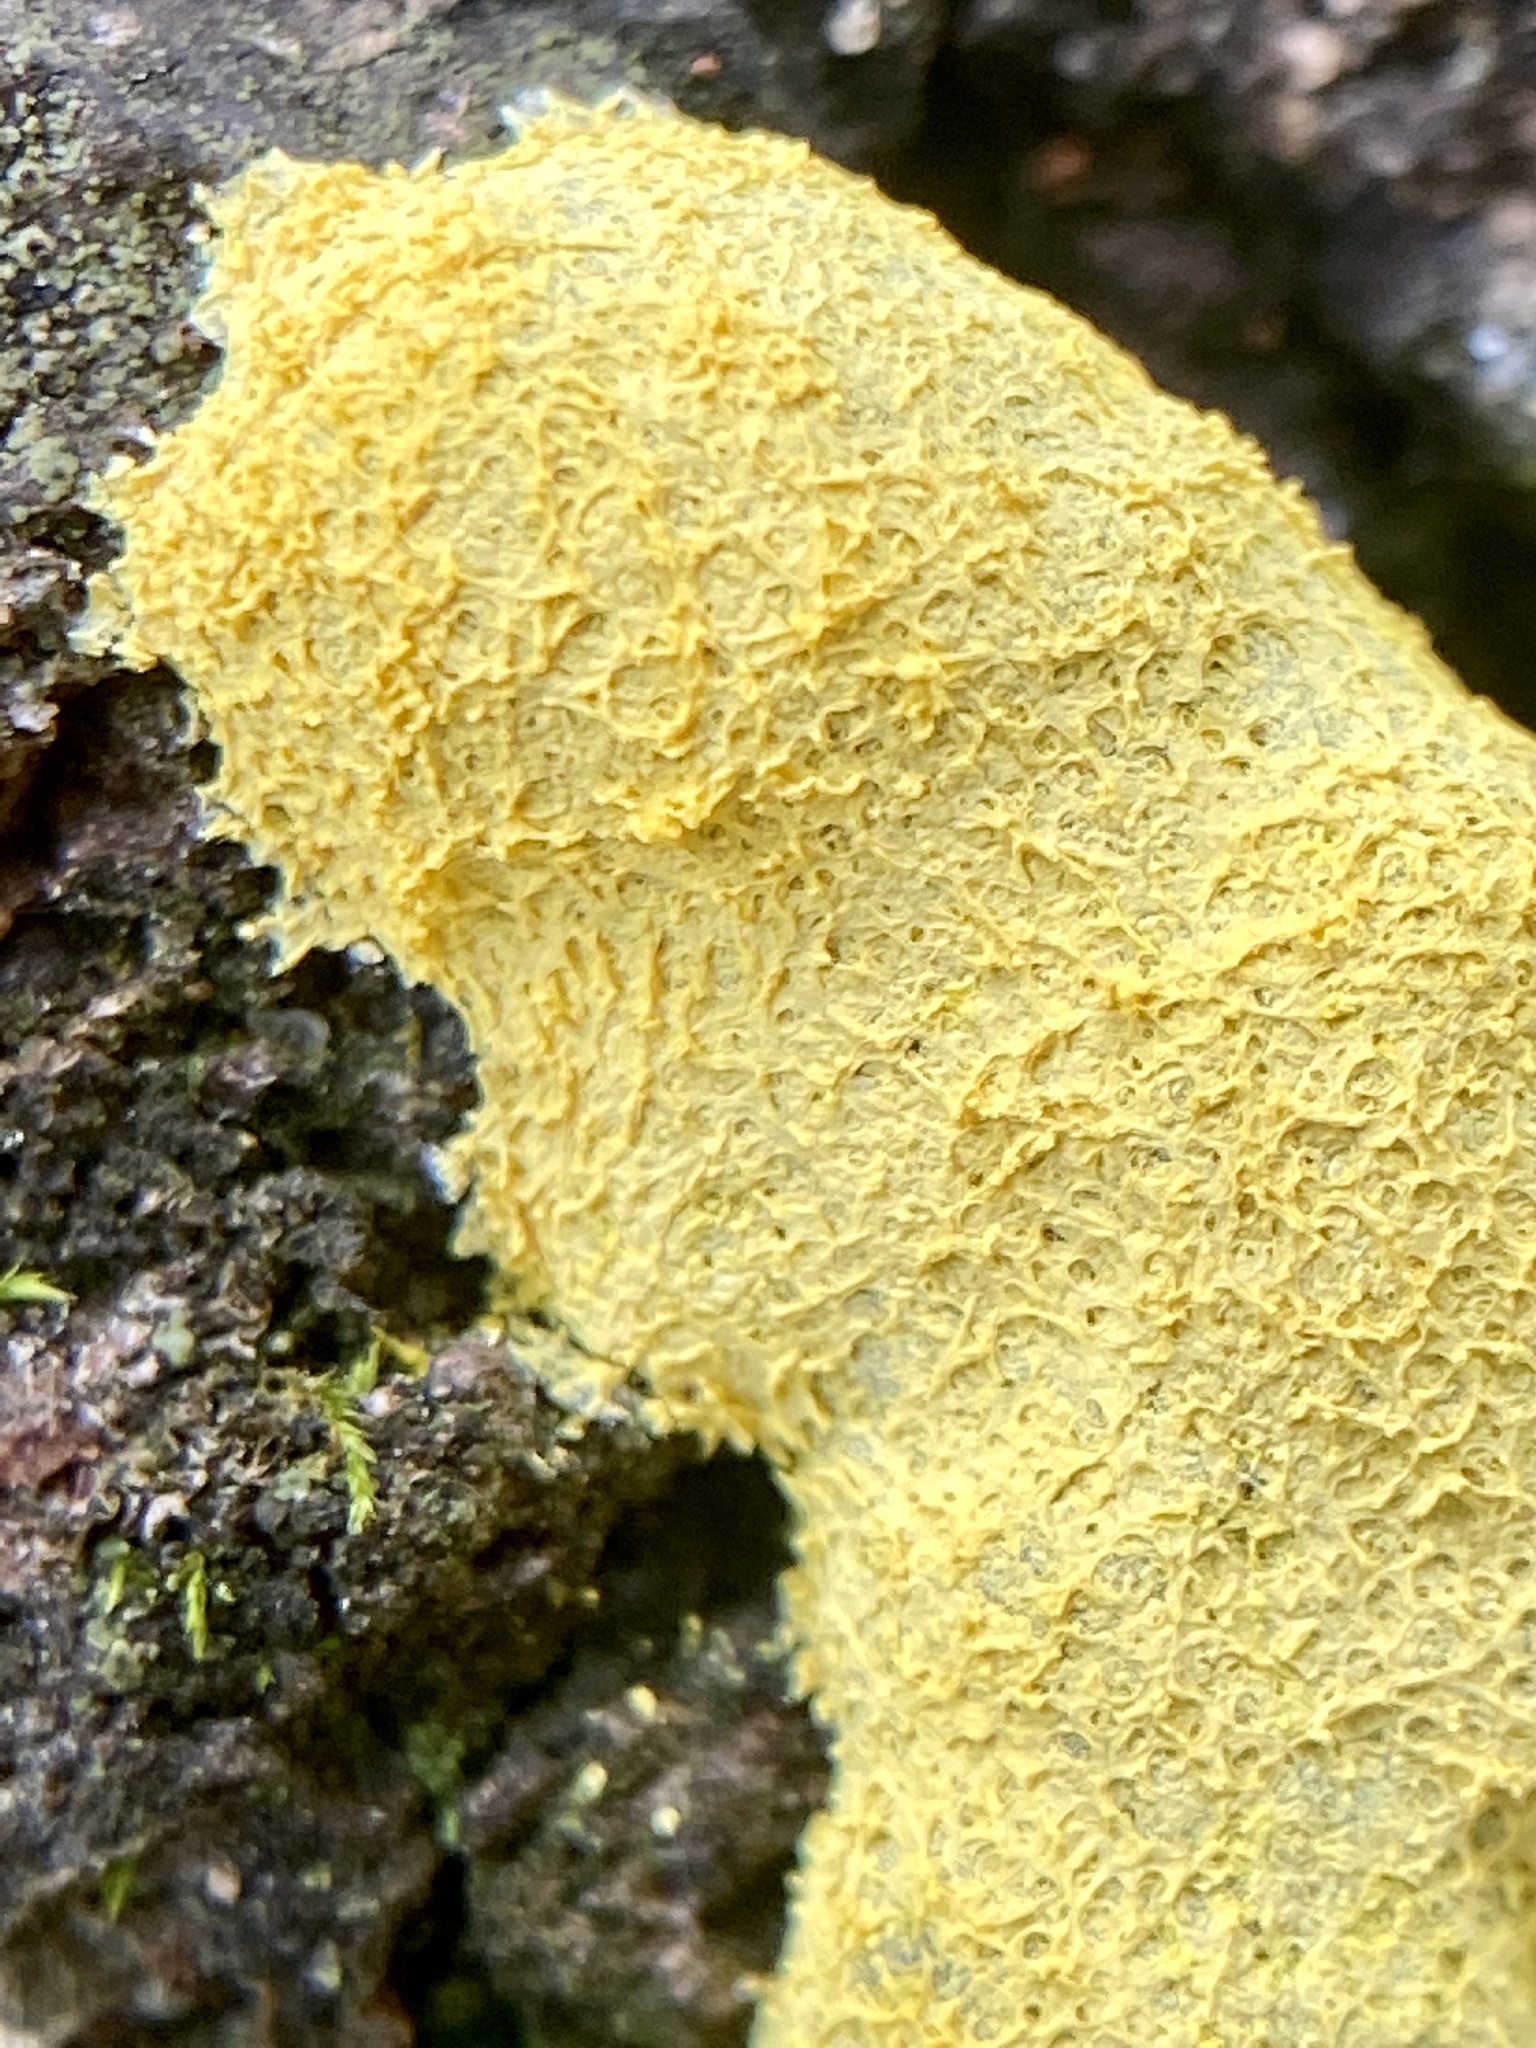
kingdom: Protozoa
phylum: Mycetozoa
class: Myxomycetes
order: Physarales
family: Physaraceae
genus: Fuligo
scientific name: Fuligo septica
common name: Dog vomit slime mold
